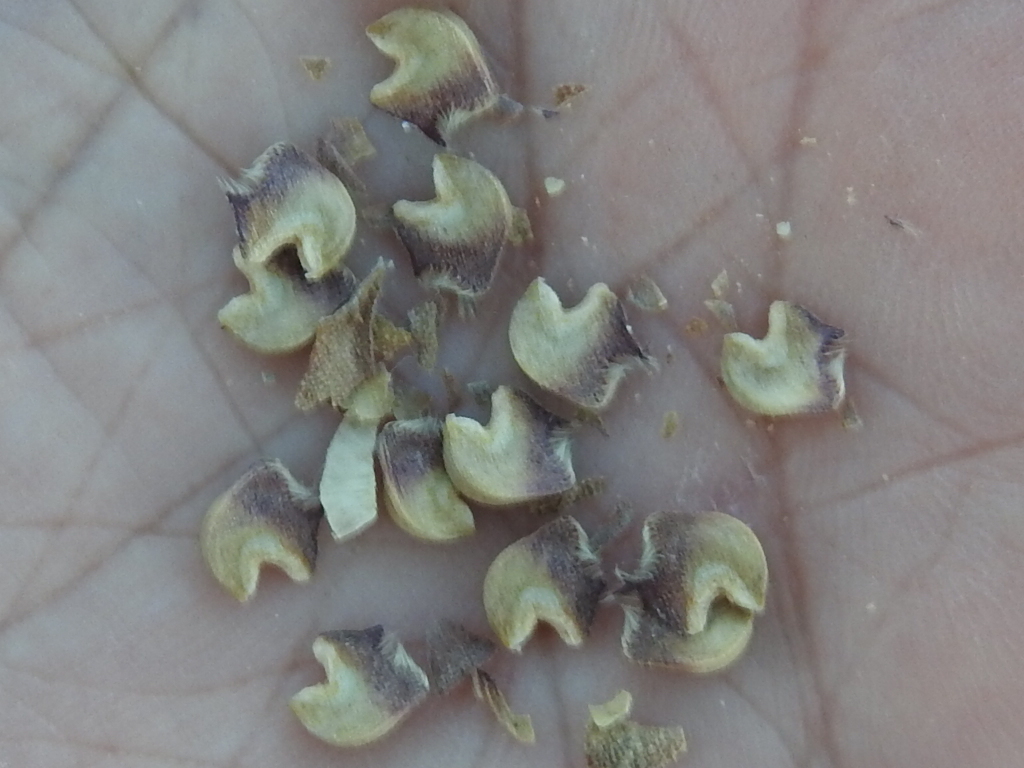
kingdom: Plantae
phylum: Tracheophyta
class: Magnoliopsida
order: Malvales
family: Malvaceae
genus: Malvastrum
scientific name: Malvastrum aurantiacum
